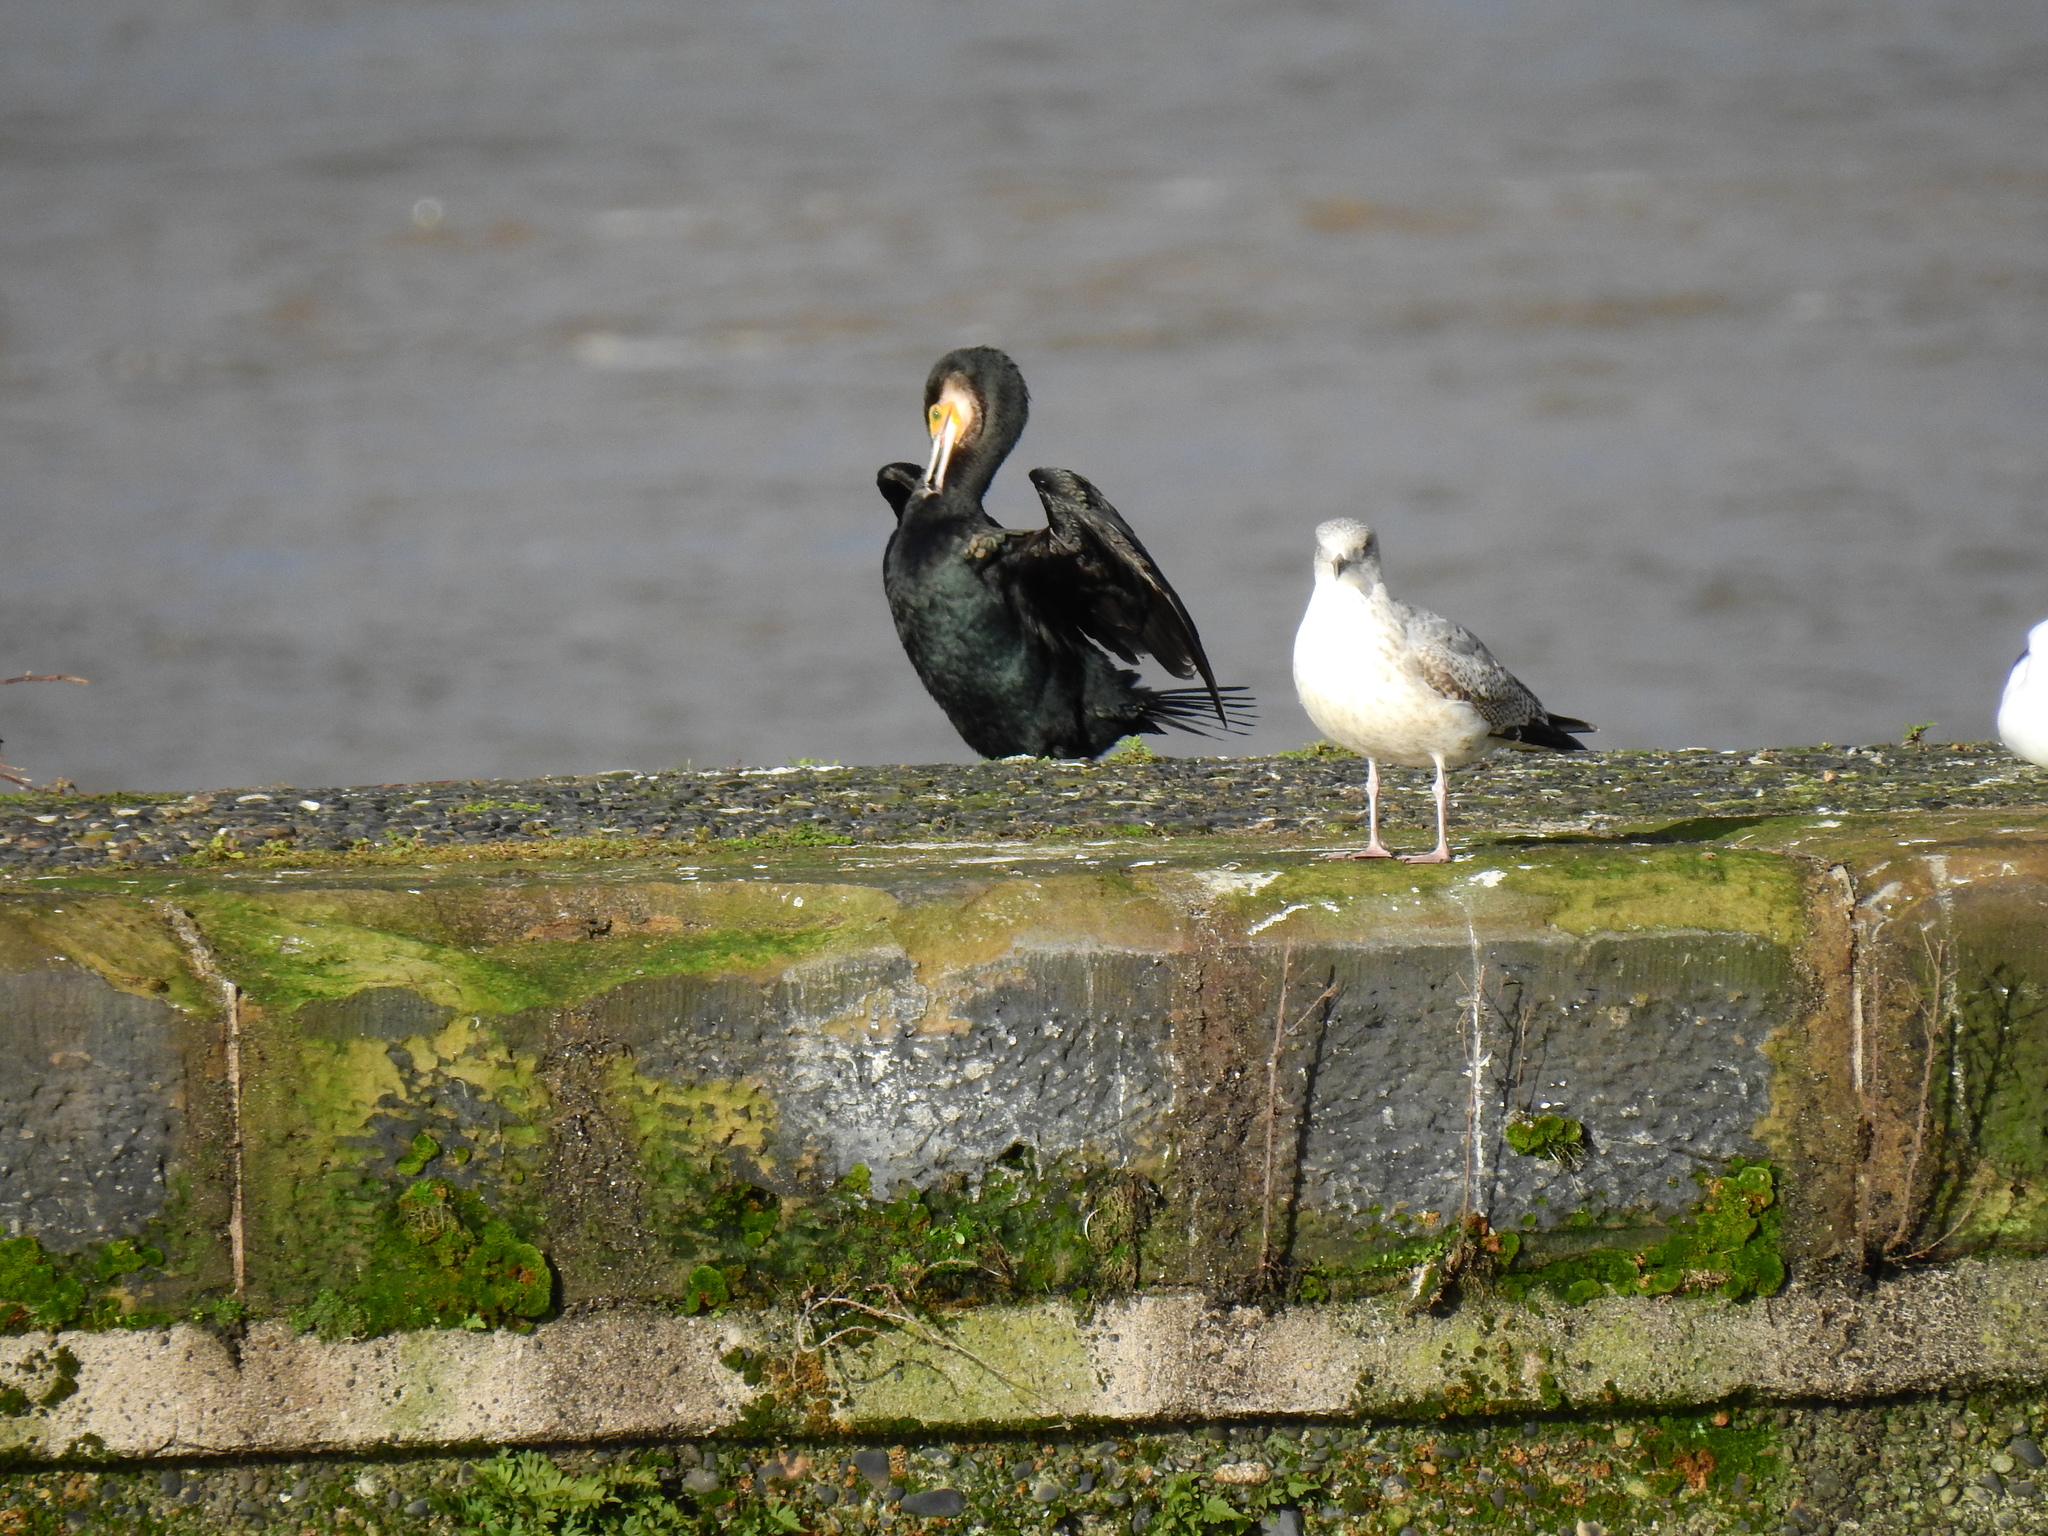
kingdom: Animalia
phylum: Chordata
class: Aves
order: Suliformes
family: Phalacrocoracidae
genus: Phalacrocorax
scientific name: Phalacrocorax carbo
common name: Great cormorant
